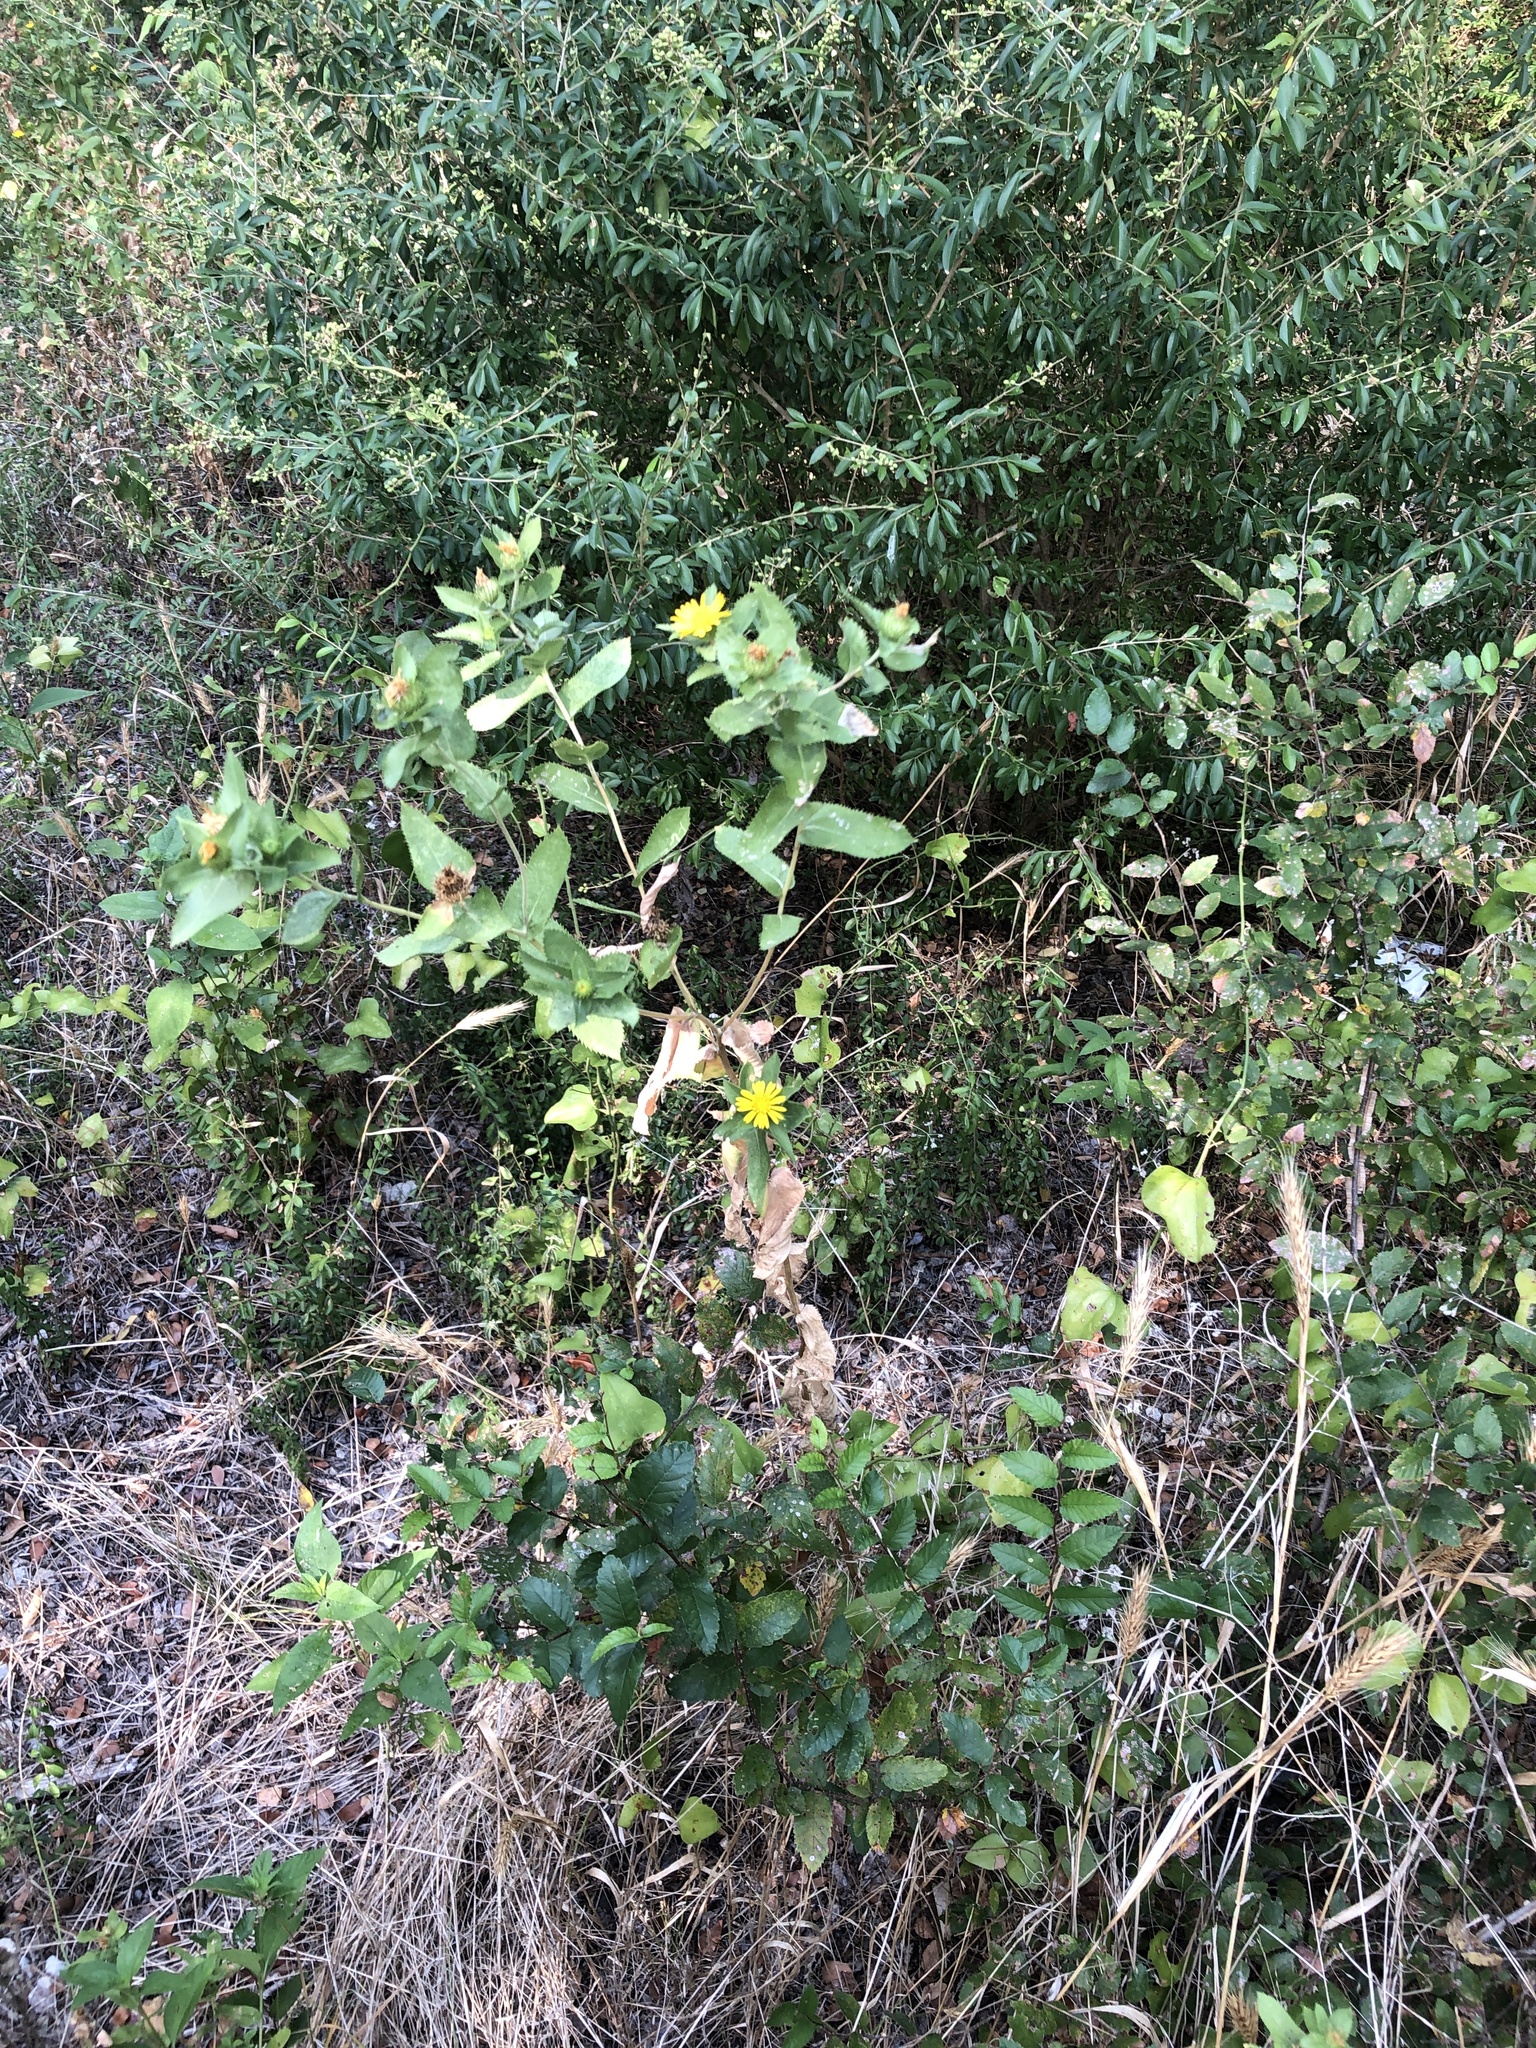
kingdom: Plantae
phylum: Tracheophyta
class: Magnoliopsida
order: Asterales
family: Asteraceae
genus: Grindelia
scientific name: Grindelia adenodonta
